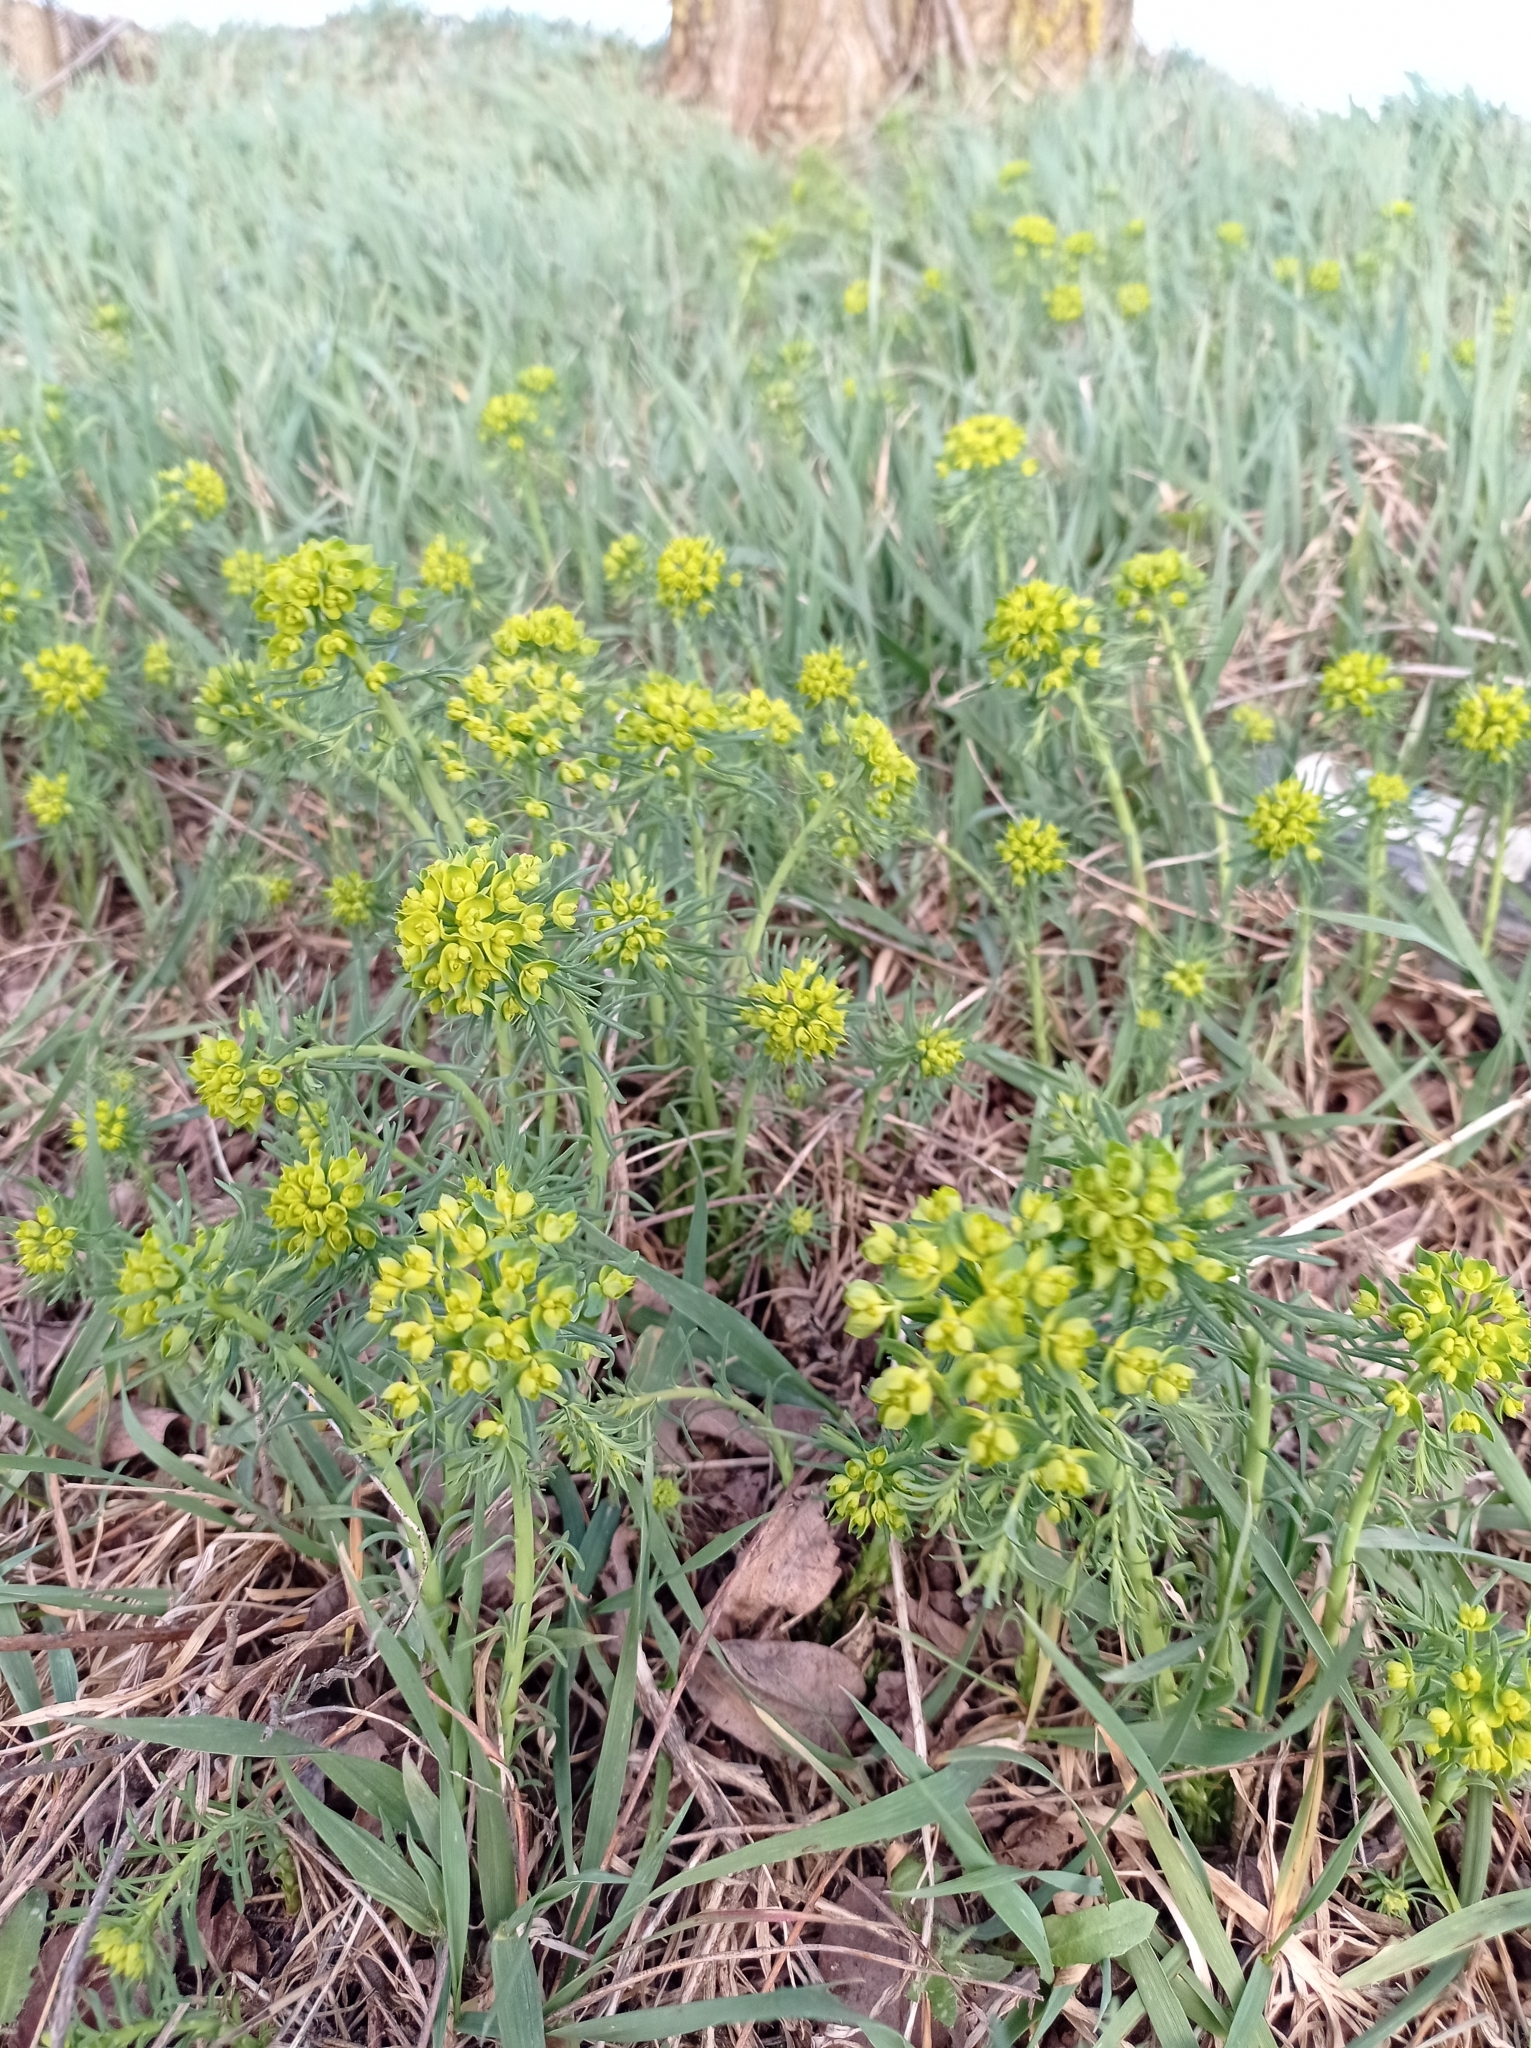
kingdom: Plantae
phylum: Tracheophyta
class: Magnoliopsida
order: Malpighiales
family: Euphorbiaceae
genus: Euphorbia
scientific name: Euphorbia cyparissias
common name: Cypress spurge
